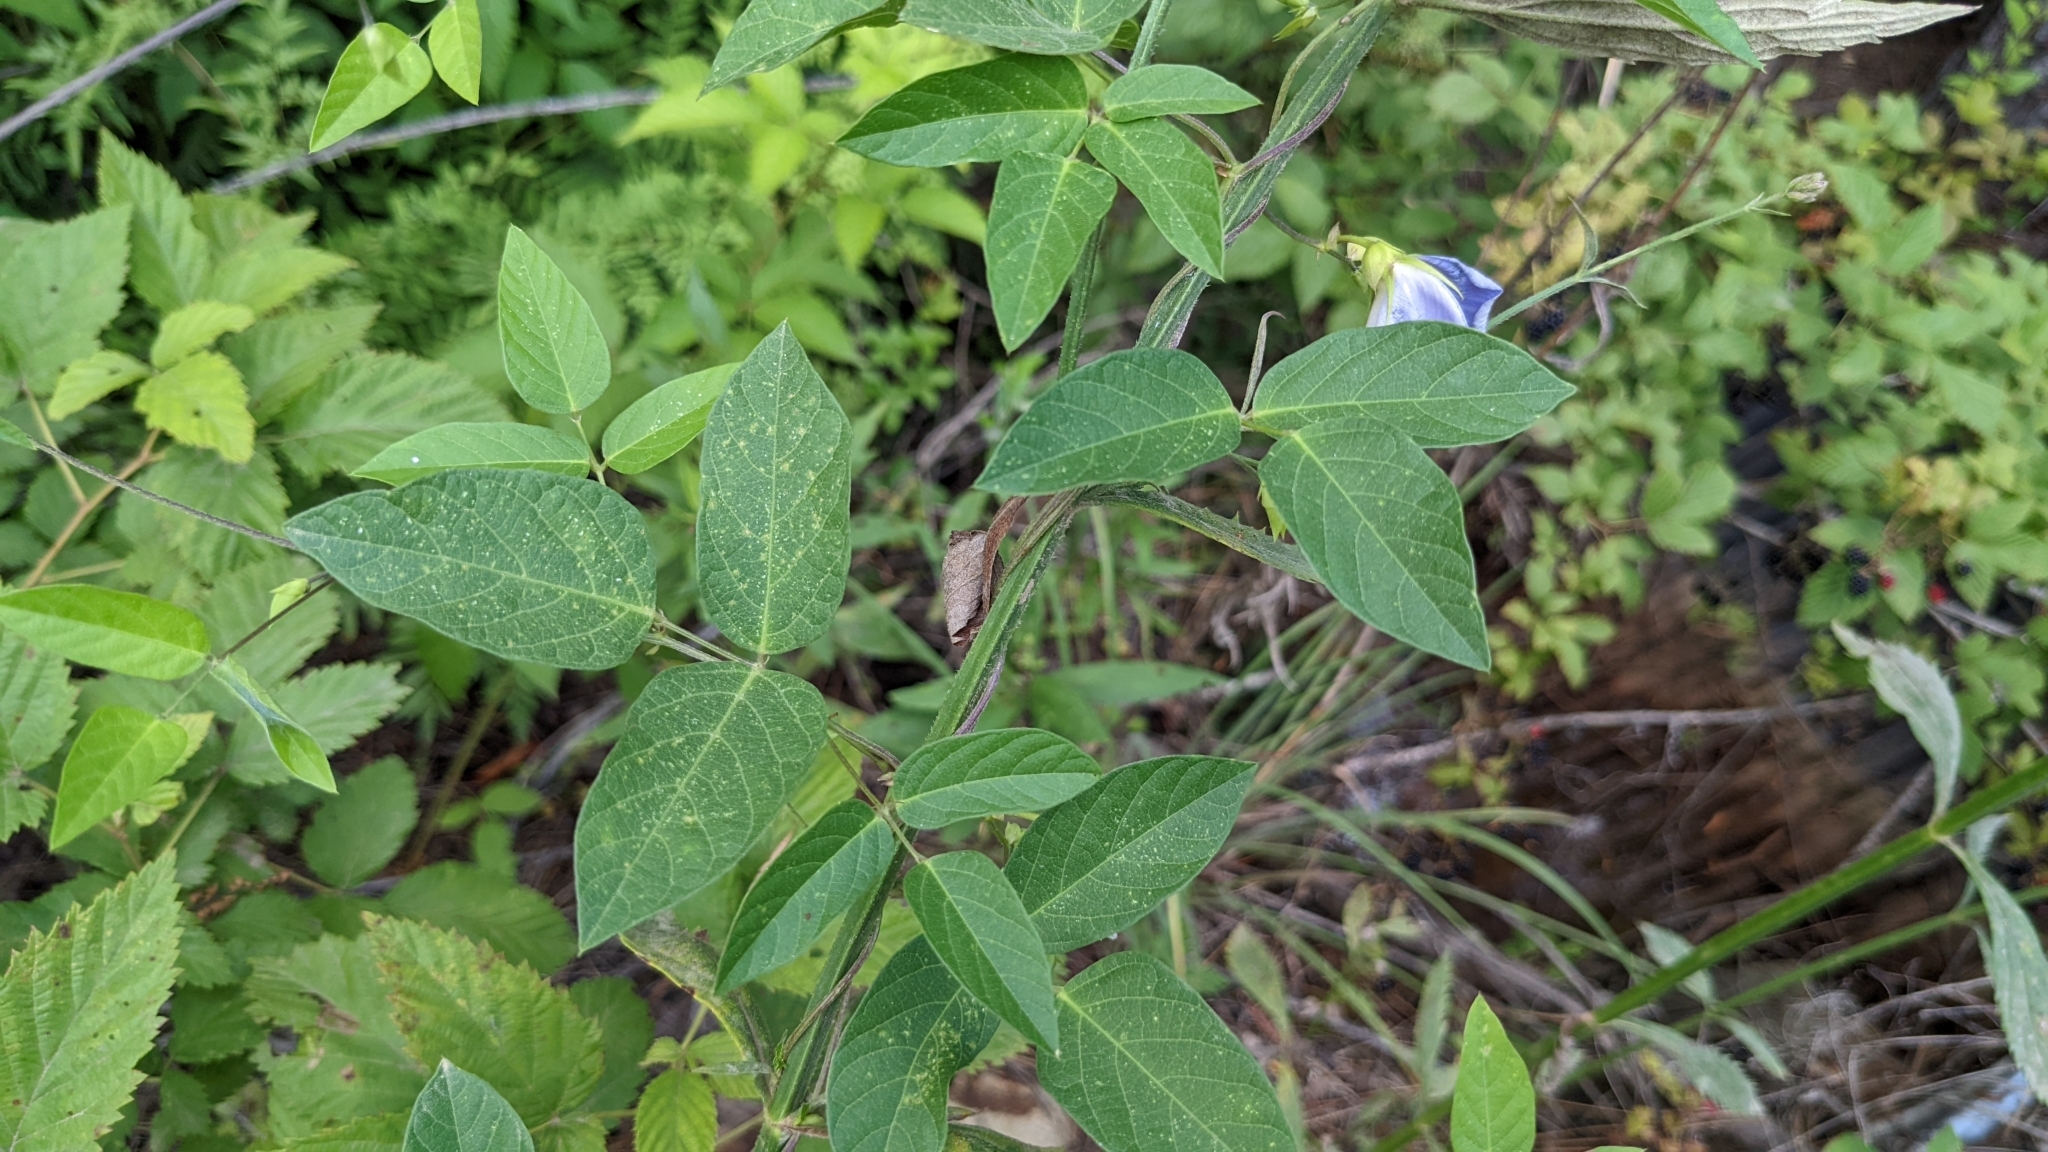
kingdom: Plantae
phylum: Tracheophyta
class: Magnoliopsida
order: Fabales
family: Fabaceae
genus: Centrosema
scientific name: Centrosema virginianum
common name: Butterfly-pea
